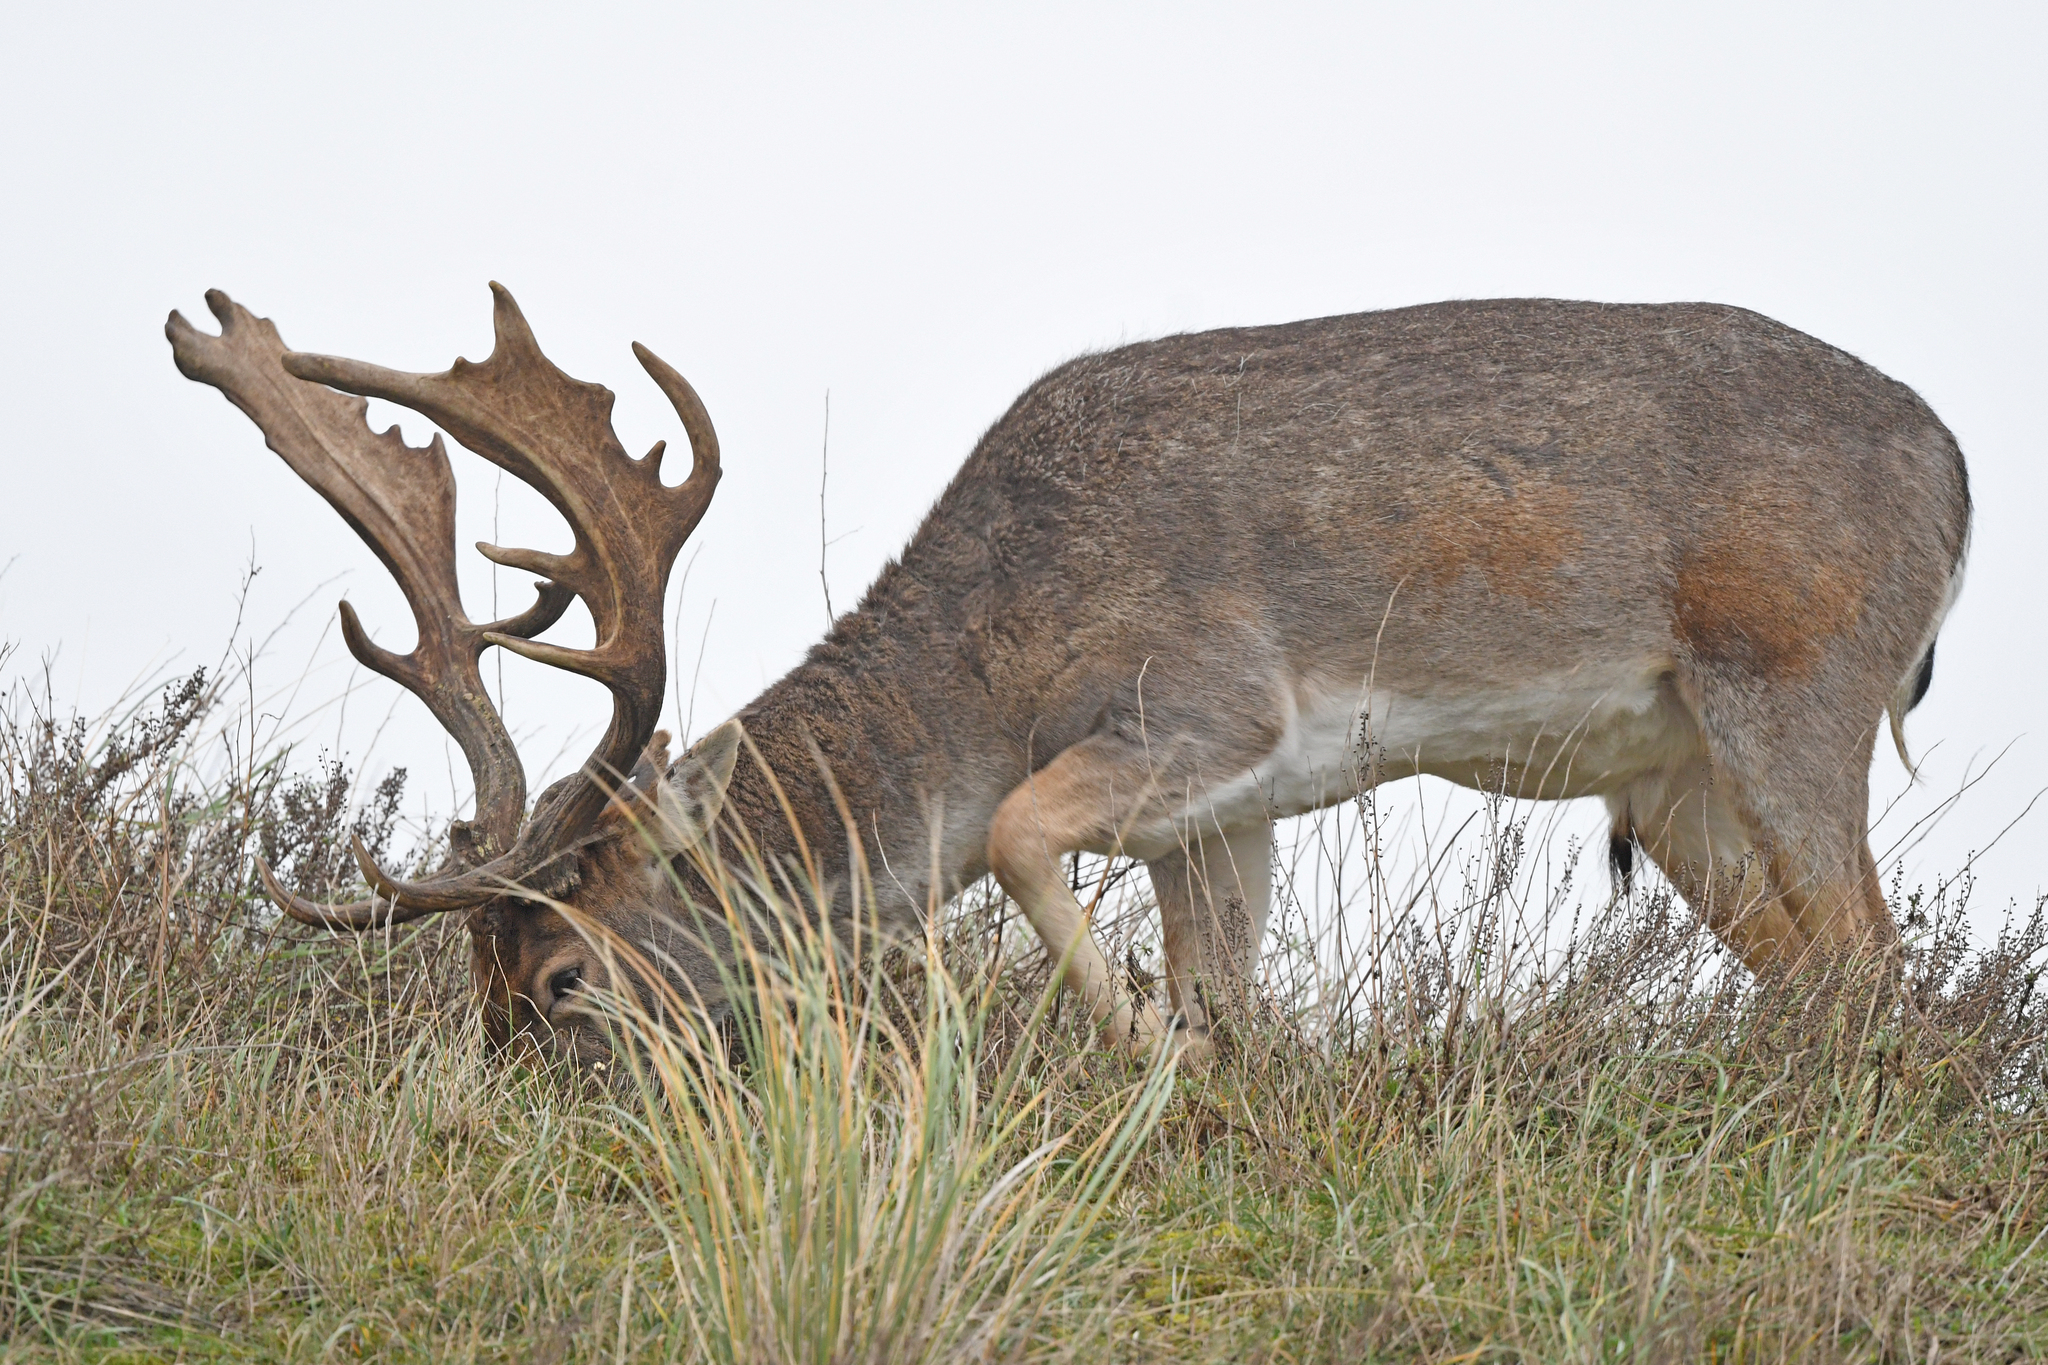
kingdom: Animalia
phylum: Chordata
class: Mammalia
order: Artiodactyla
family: Cervidae
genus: Dama
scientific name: Dama dama
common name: Fallow deer
